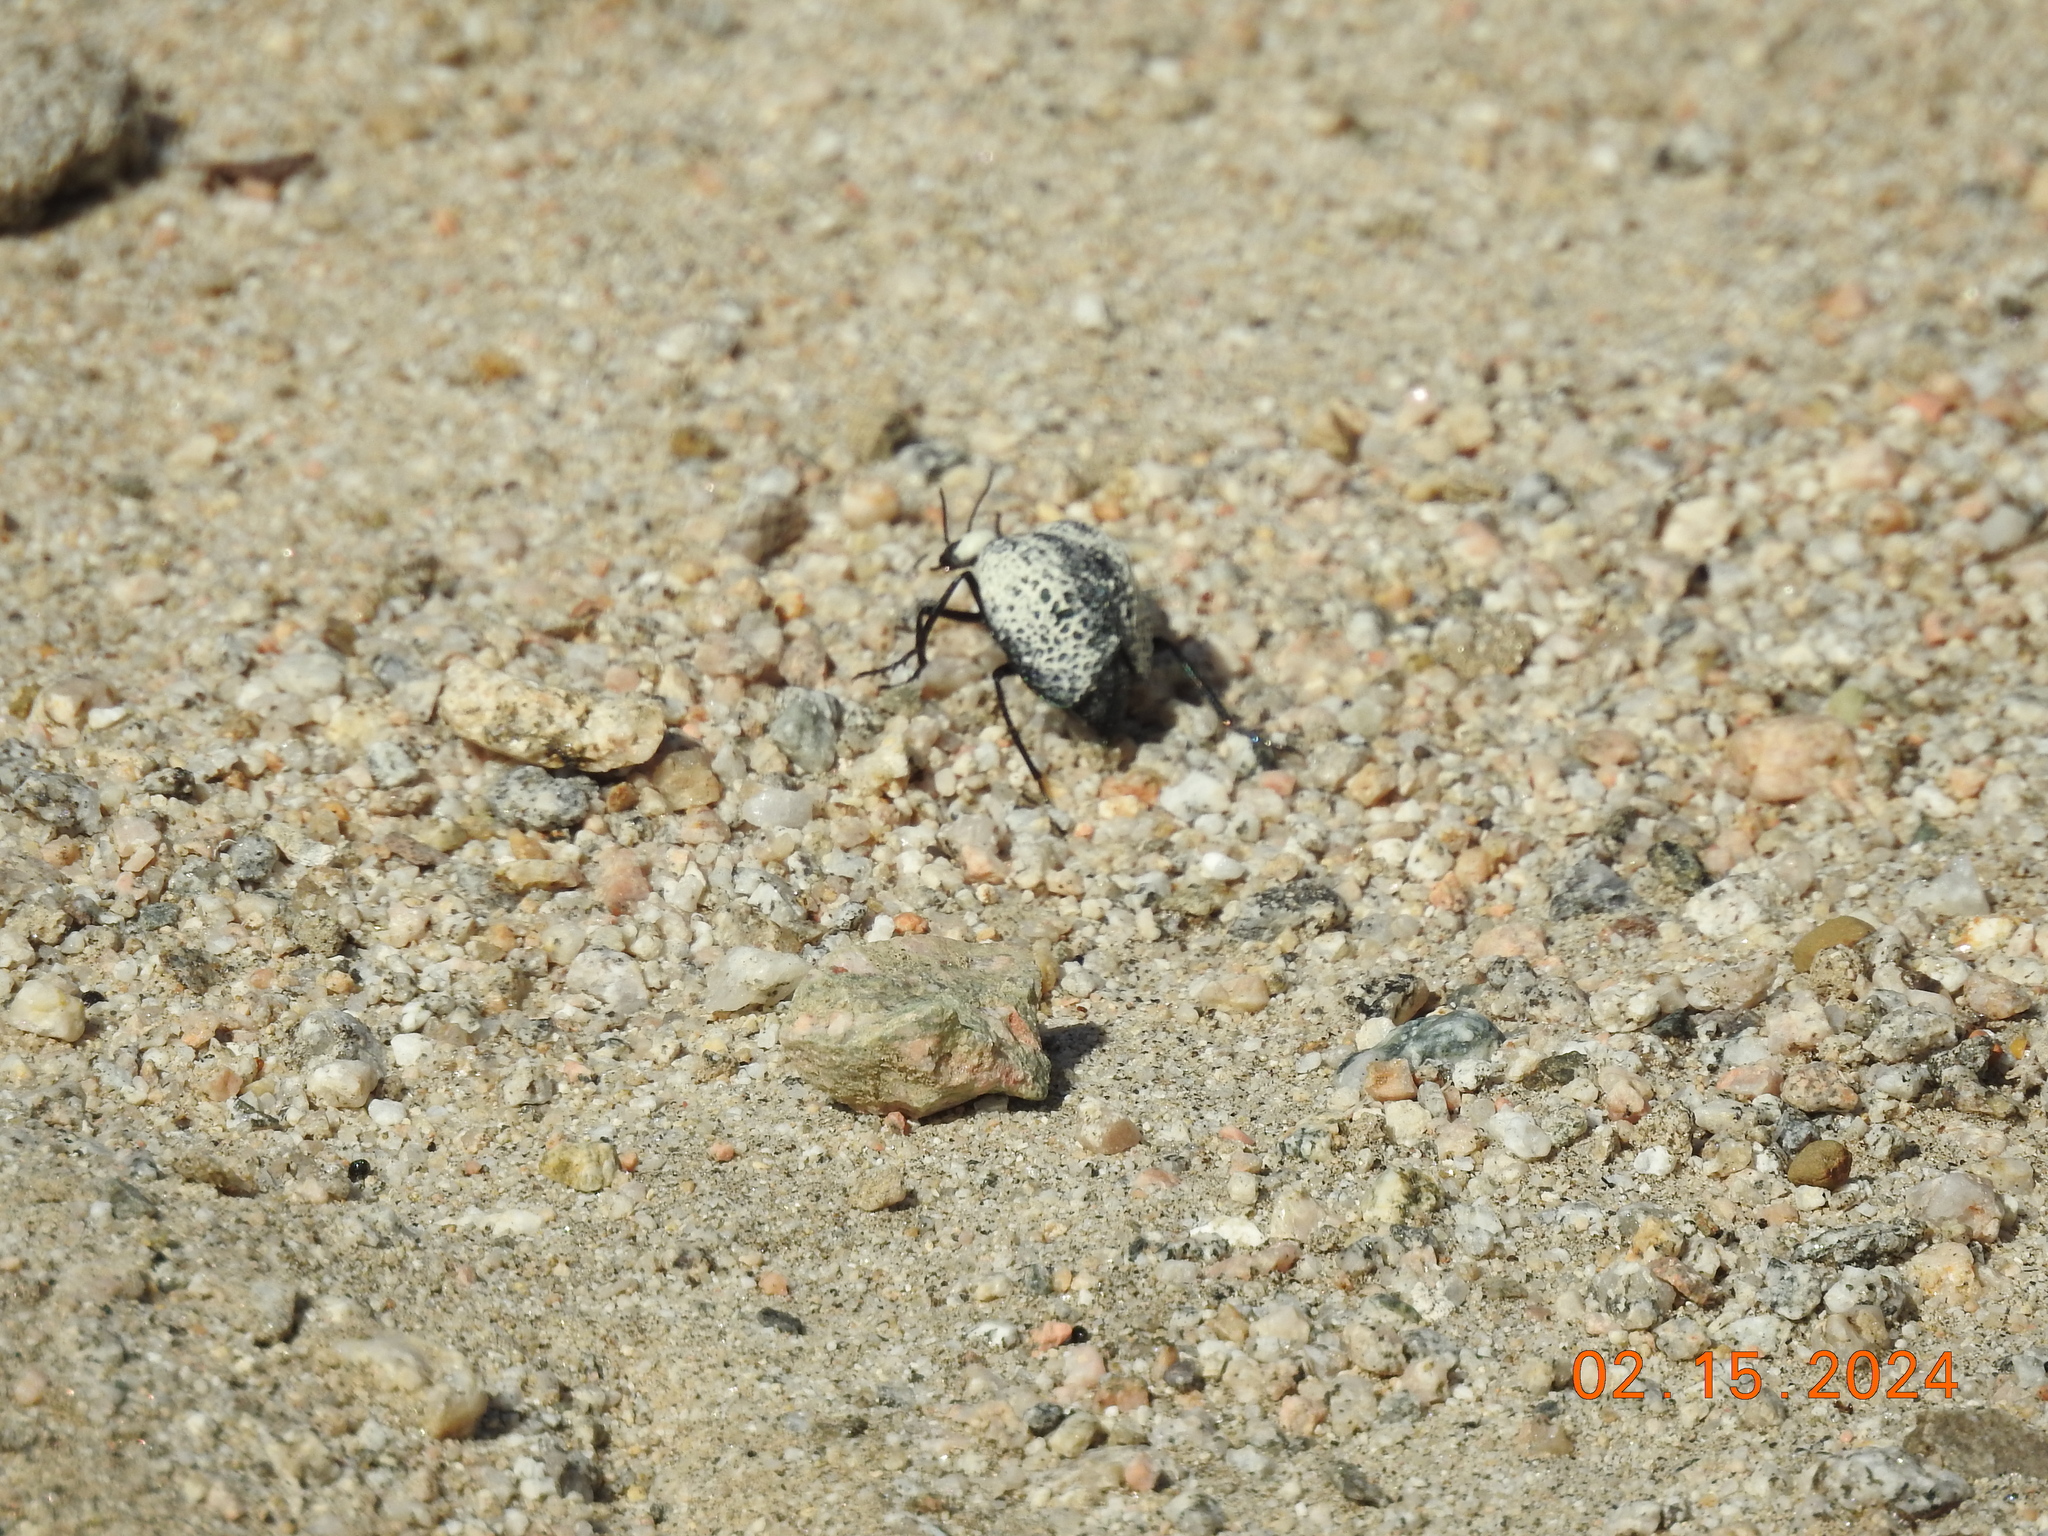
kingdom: Animalia
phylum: Arthropoda
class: Insecta
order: Coleoptera
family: Meloidae
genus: Cysteodemus
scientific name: Cysteodemus armatus
